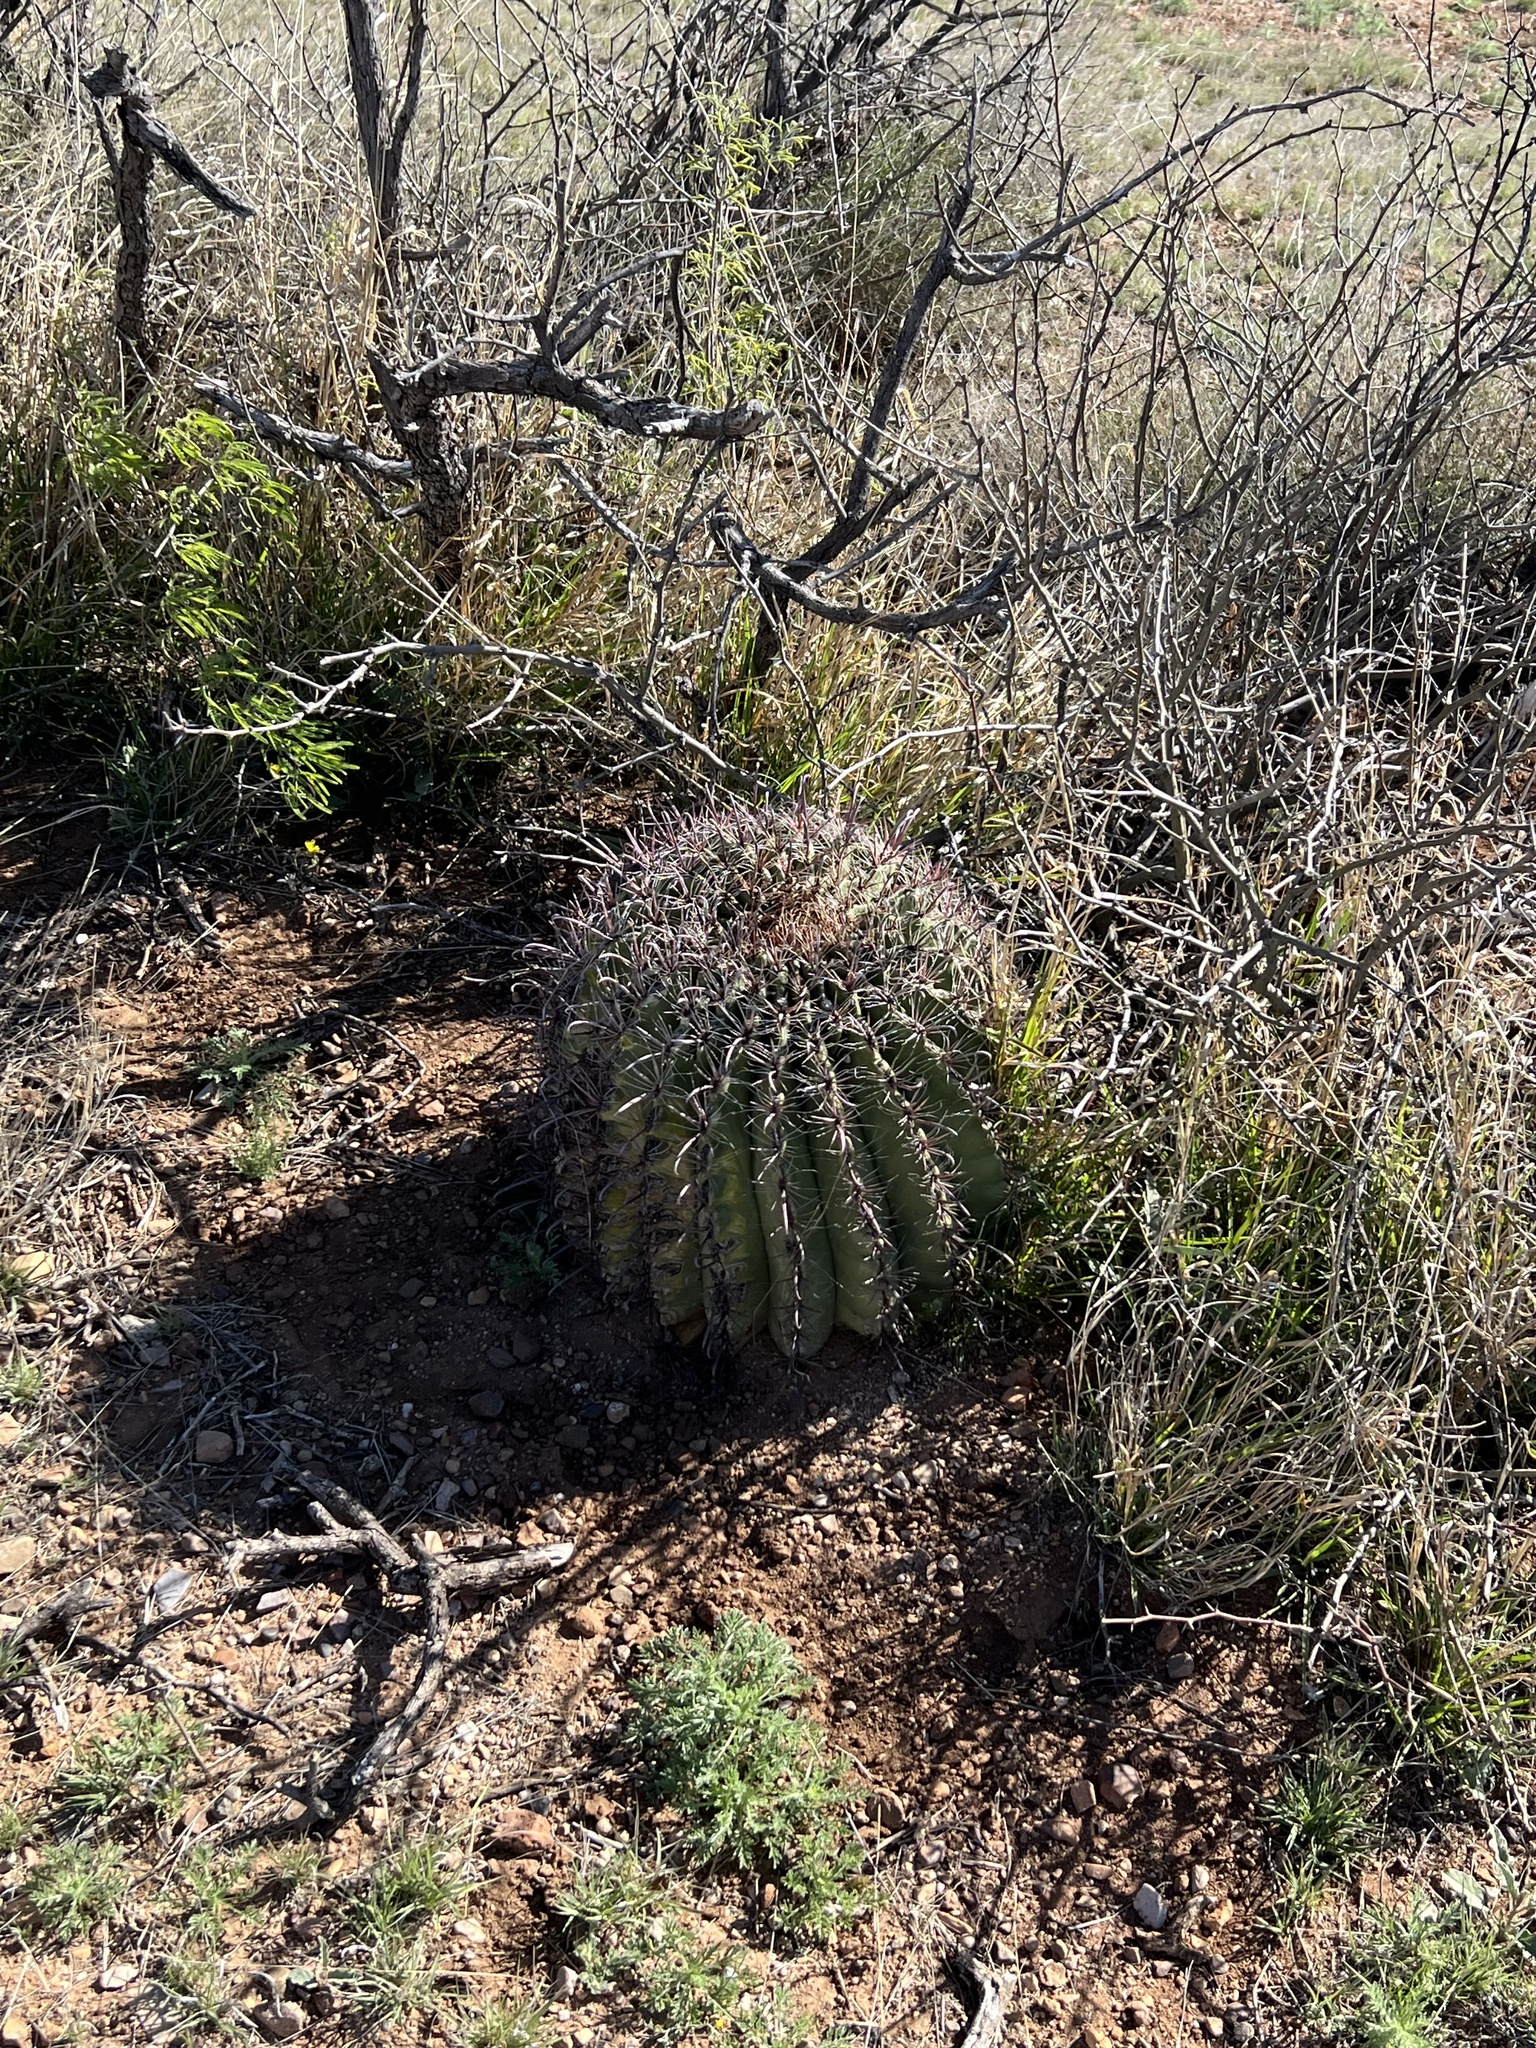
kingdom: Plantae
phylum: Tracheophyta
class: Magnoliopsida
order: Caryophyllales
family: Cactaceae
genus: Ferocactus
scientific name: Ferocactus wislizeni
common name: Candy barrel cactus
